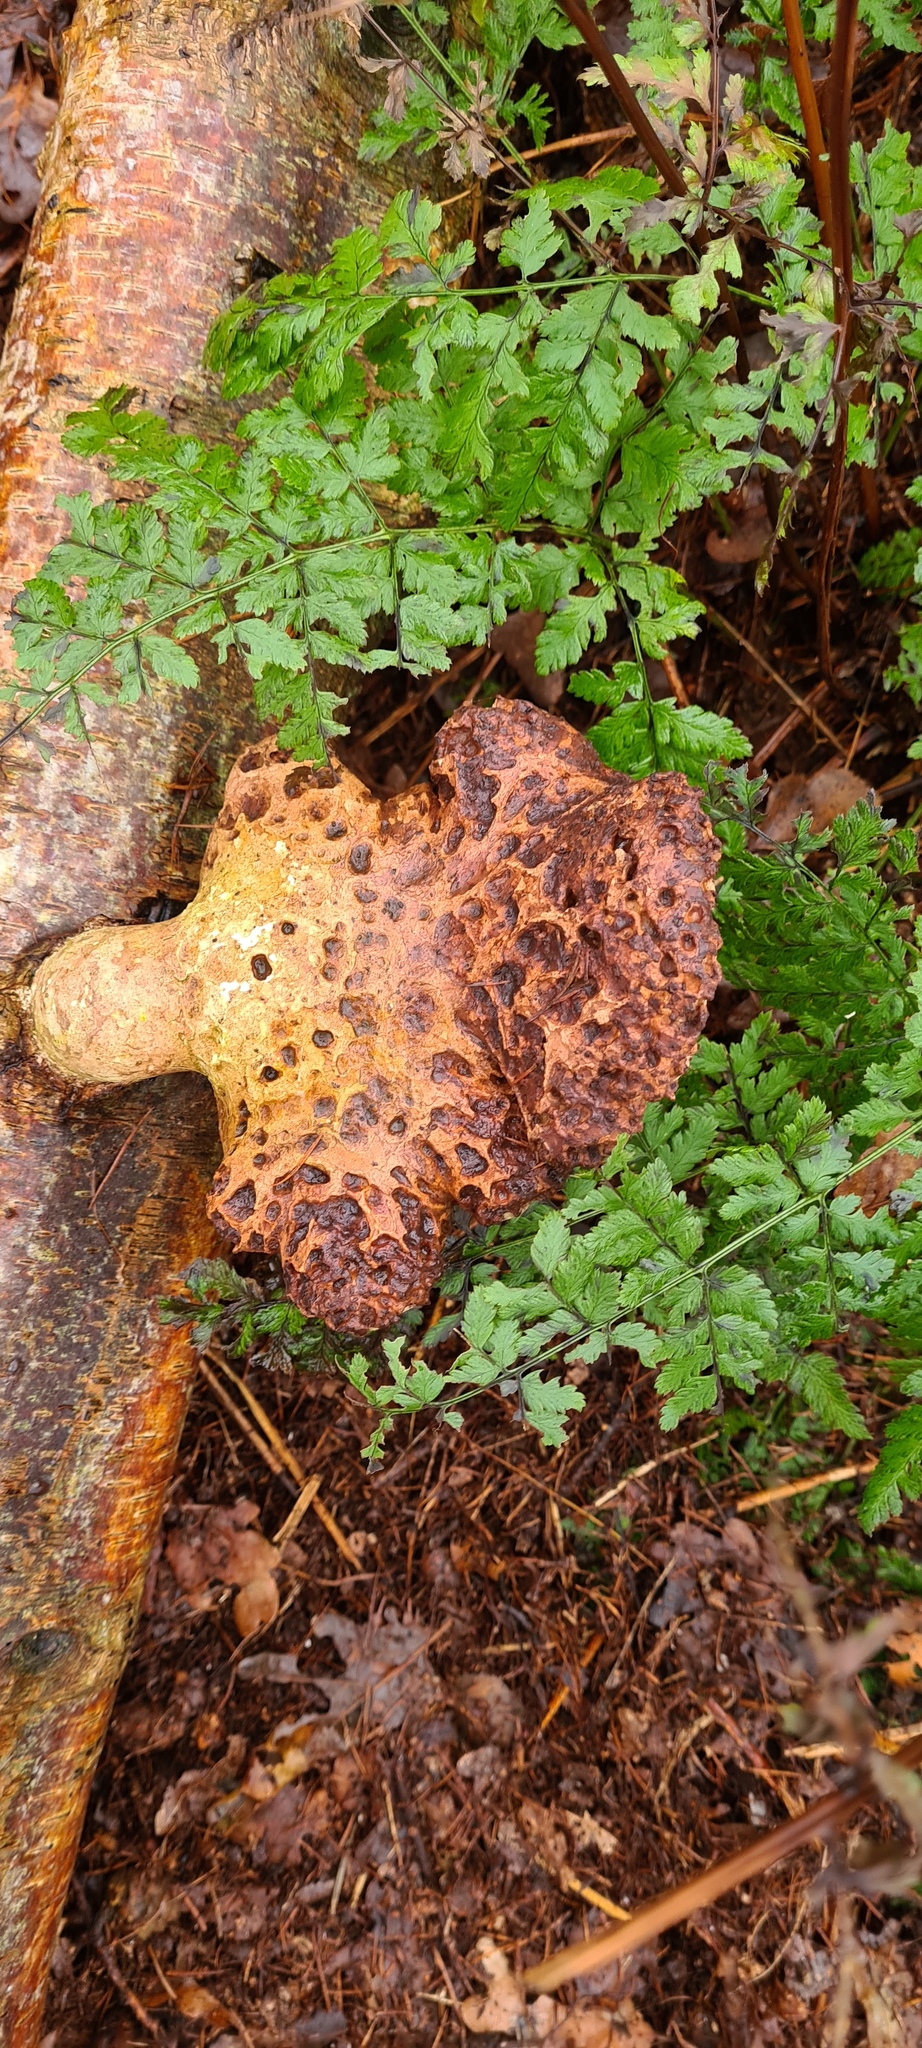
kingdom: Fungi
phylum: Basidiomycota
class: Agaricomycetes
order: Polyporales
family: Fomitopsidaceae
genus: Fomitopsis
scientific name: Fomitopsis betulina
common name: Birch polypore
